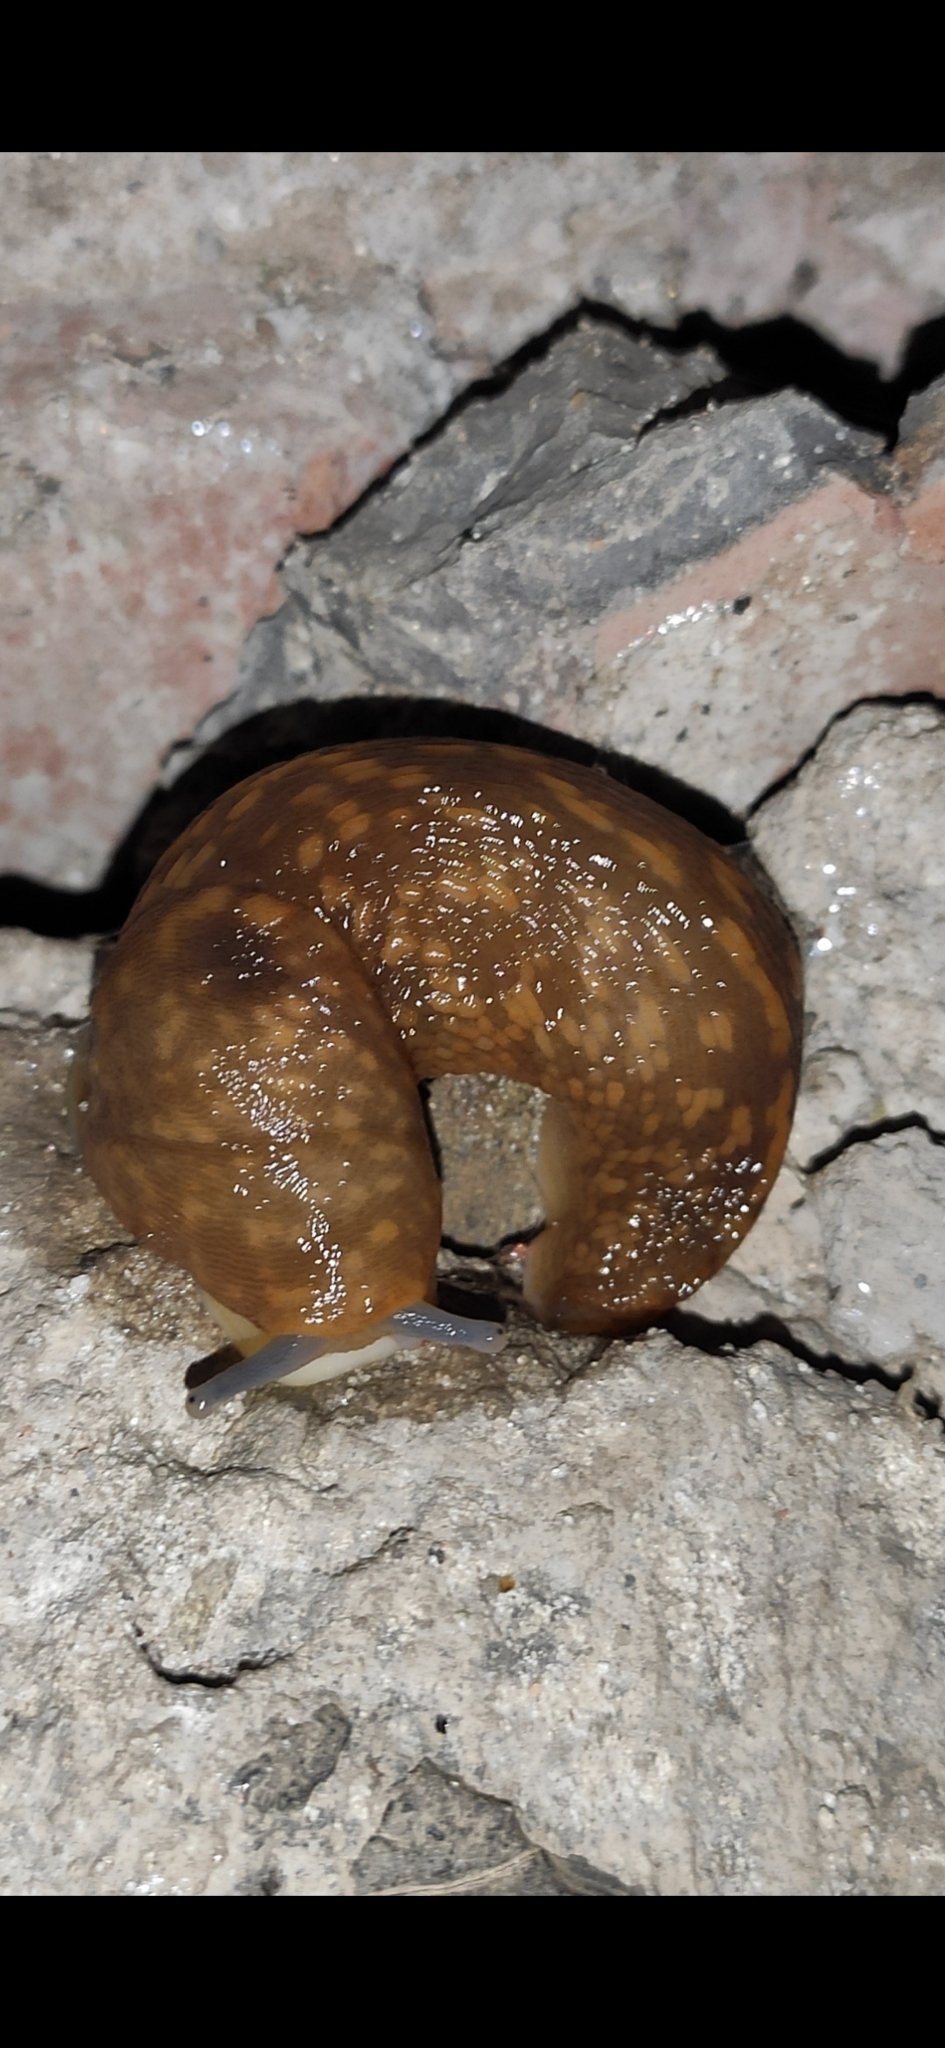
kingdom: Animalia
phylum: Mollusca
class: Gastropoda
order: Stylommatophora
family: Limacidae
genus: Limacus
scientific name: Limacus flavus
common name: Yellow gardenslug
